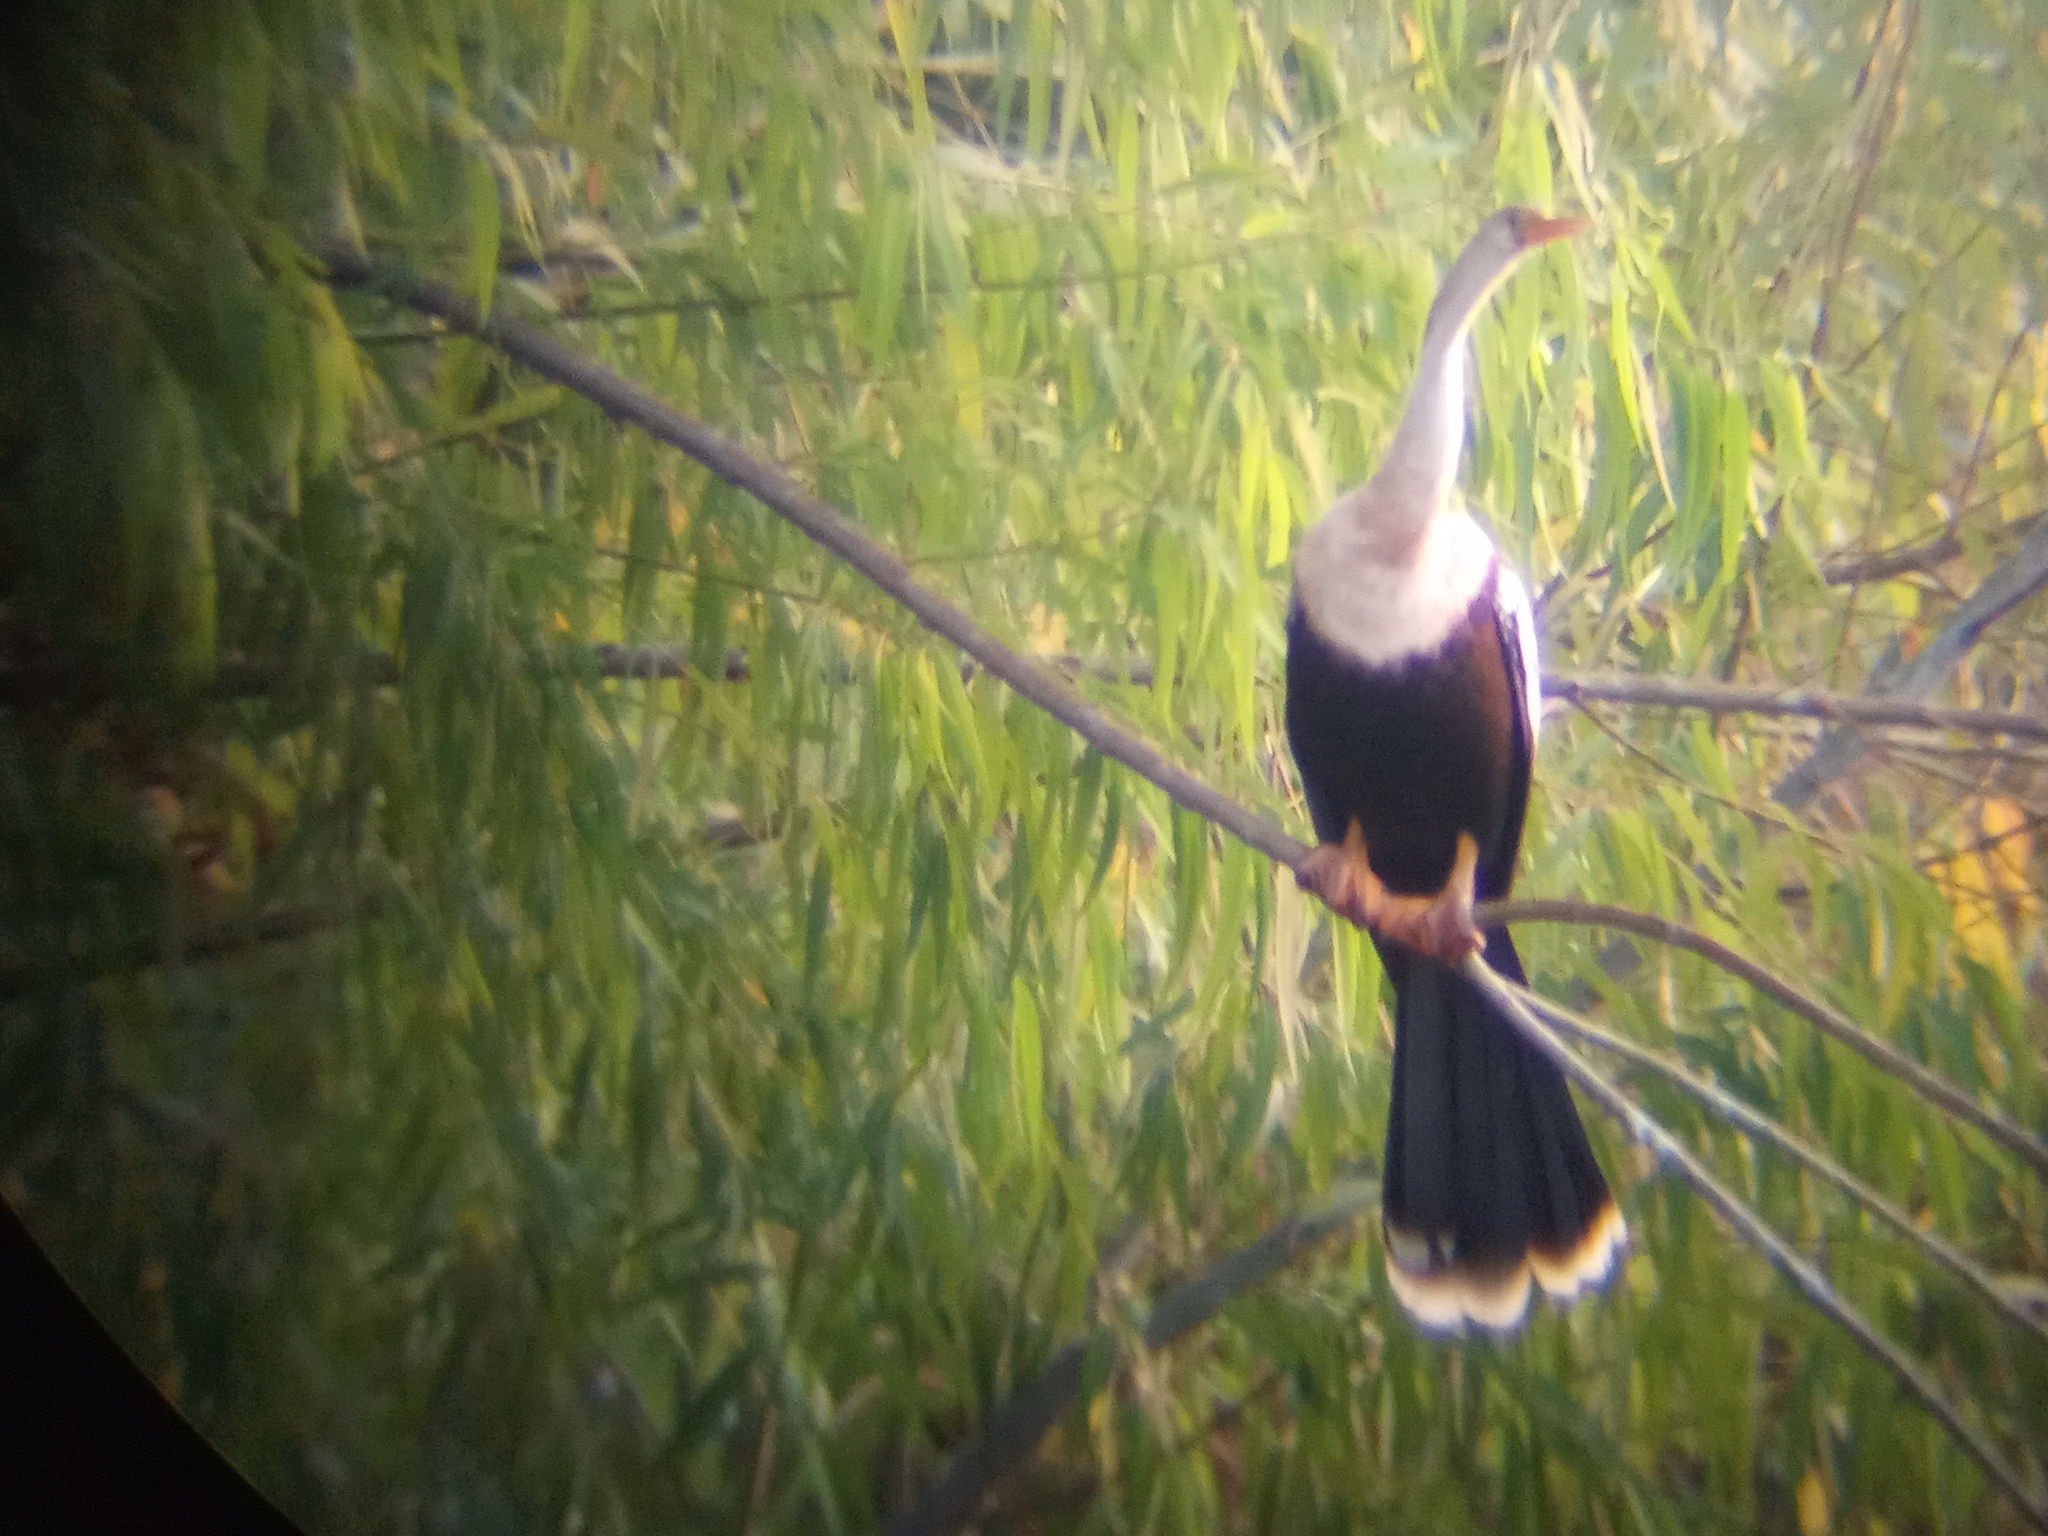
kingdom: Animalia
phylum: Chordata
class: Aves
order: Suliformes
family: Anhingidae
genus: Anhinga
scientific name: Anhinga anhinga
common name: Anhinga
